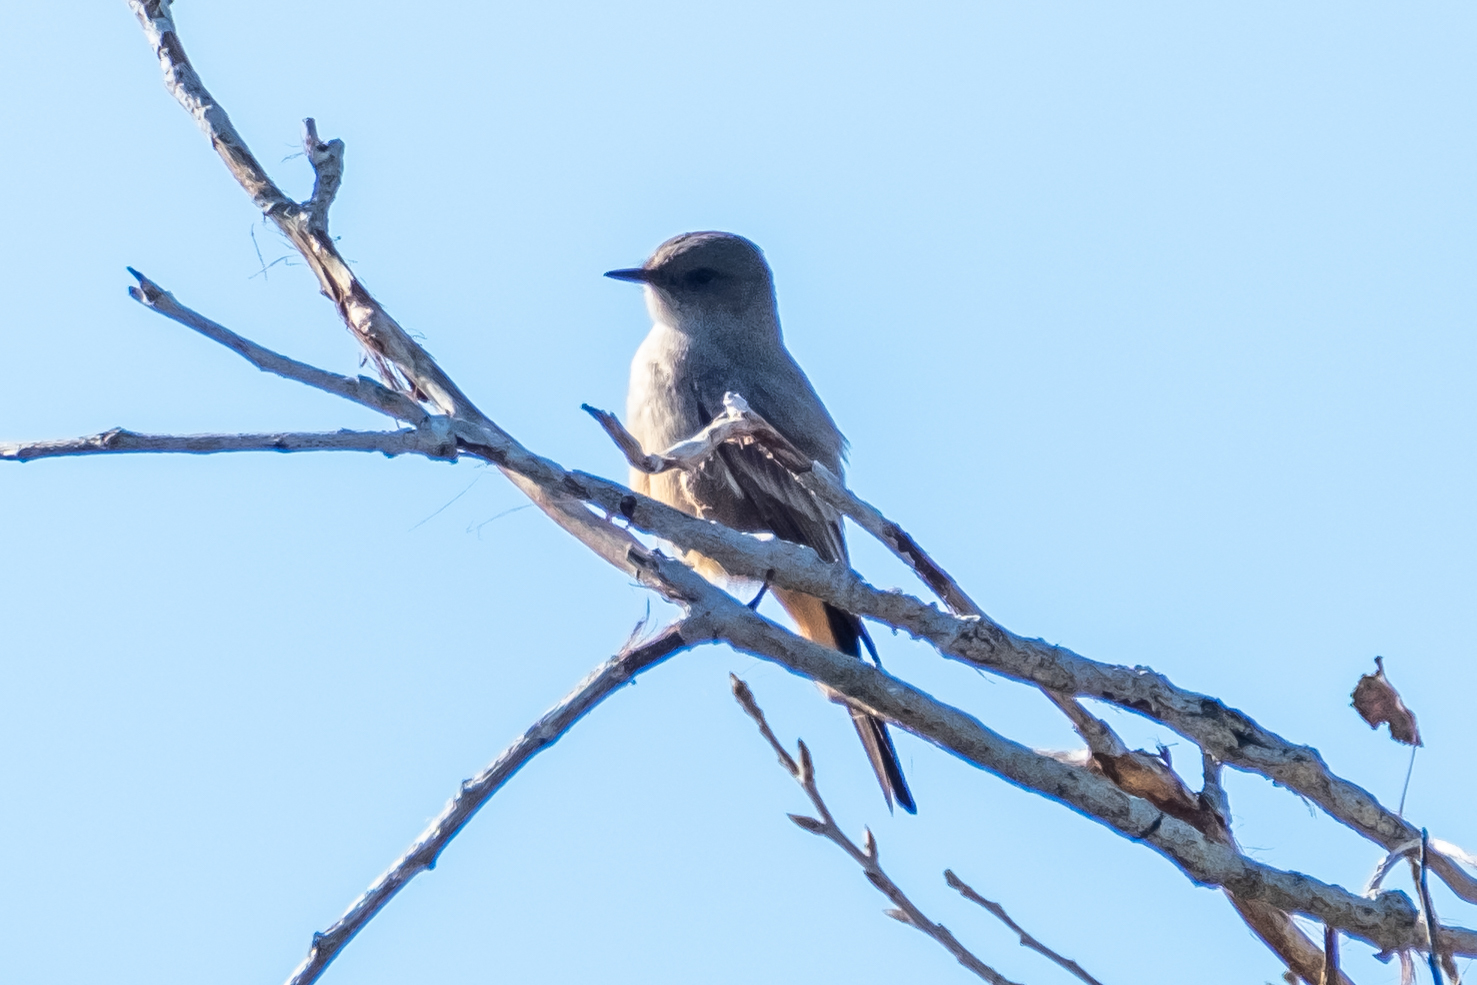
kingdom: Animalia
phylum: Chordata
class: Aves
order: Passeriformes
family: Tyrannidae
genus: Sayornis
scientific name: Sayornis saya
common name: Say's phoebe
